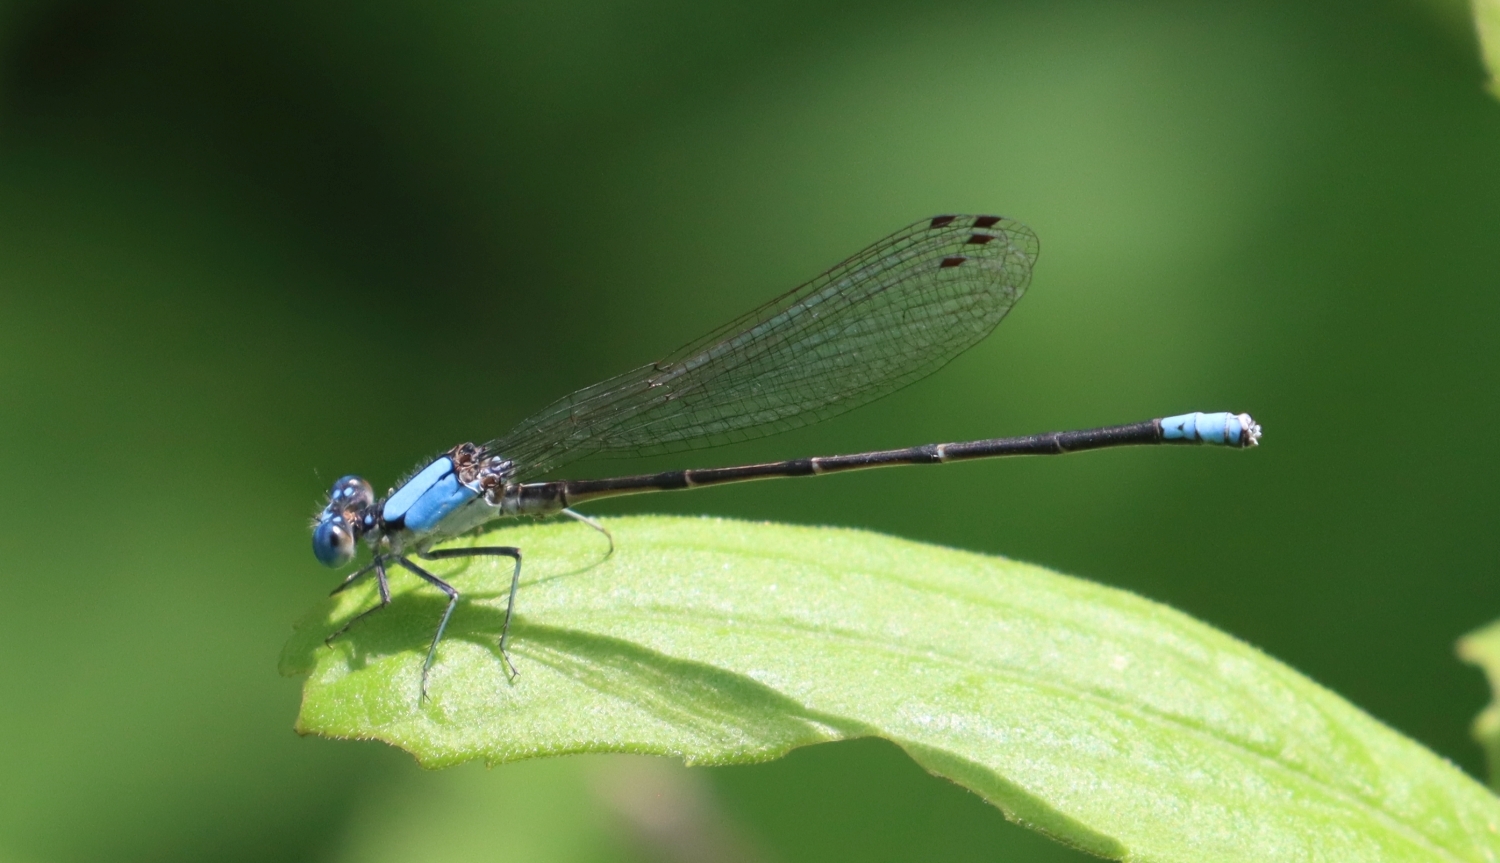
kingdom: Animalia
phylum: Arthropoda
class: Insecta
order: Odonata
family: Coenagrionidae
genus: Argia
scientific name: Argia apicalis
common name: Blue-fronted dancer
